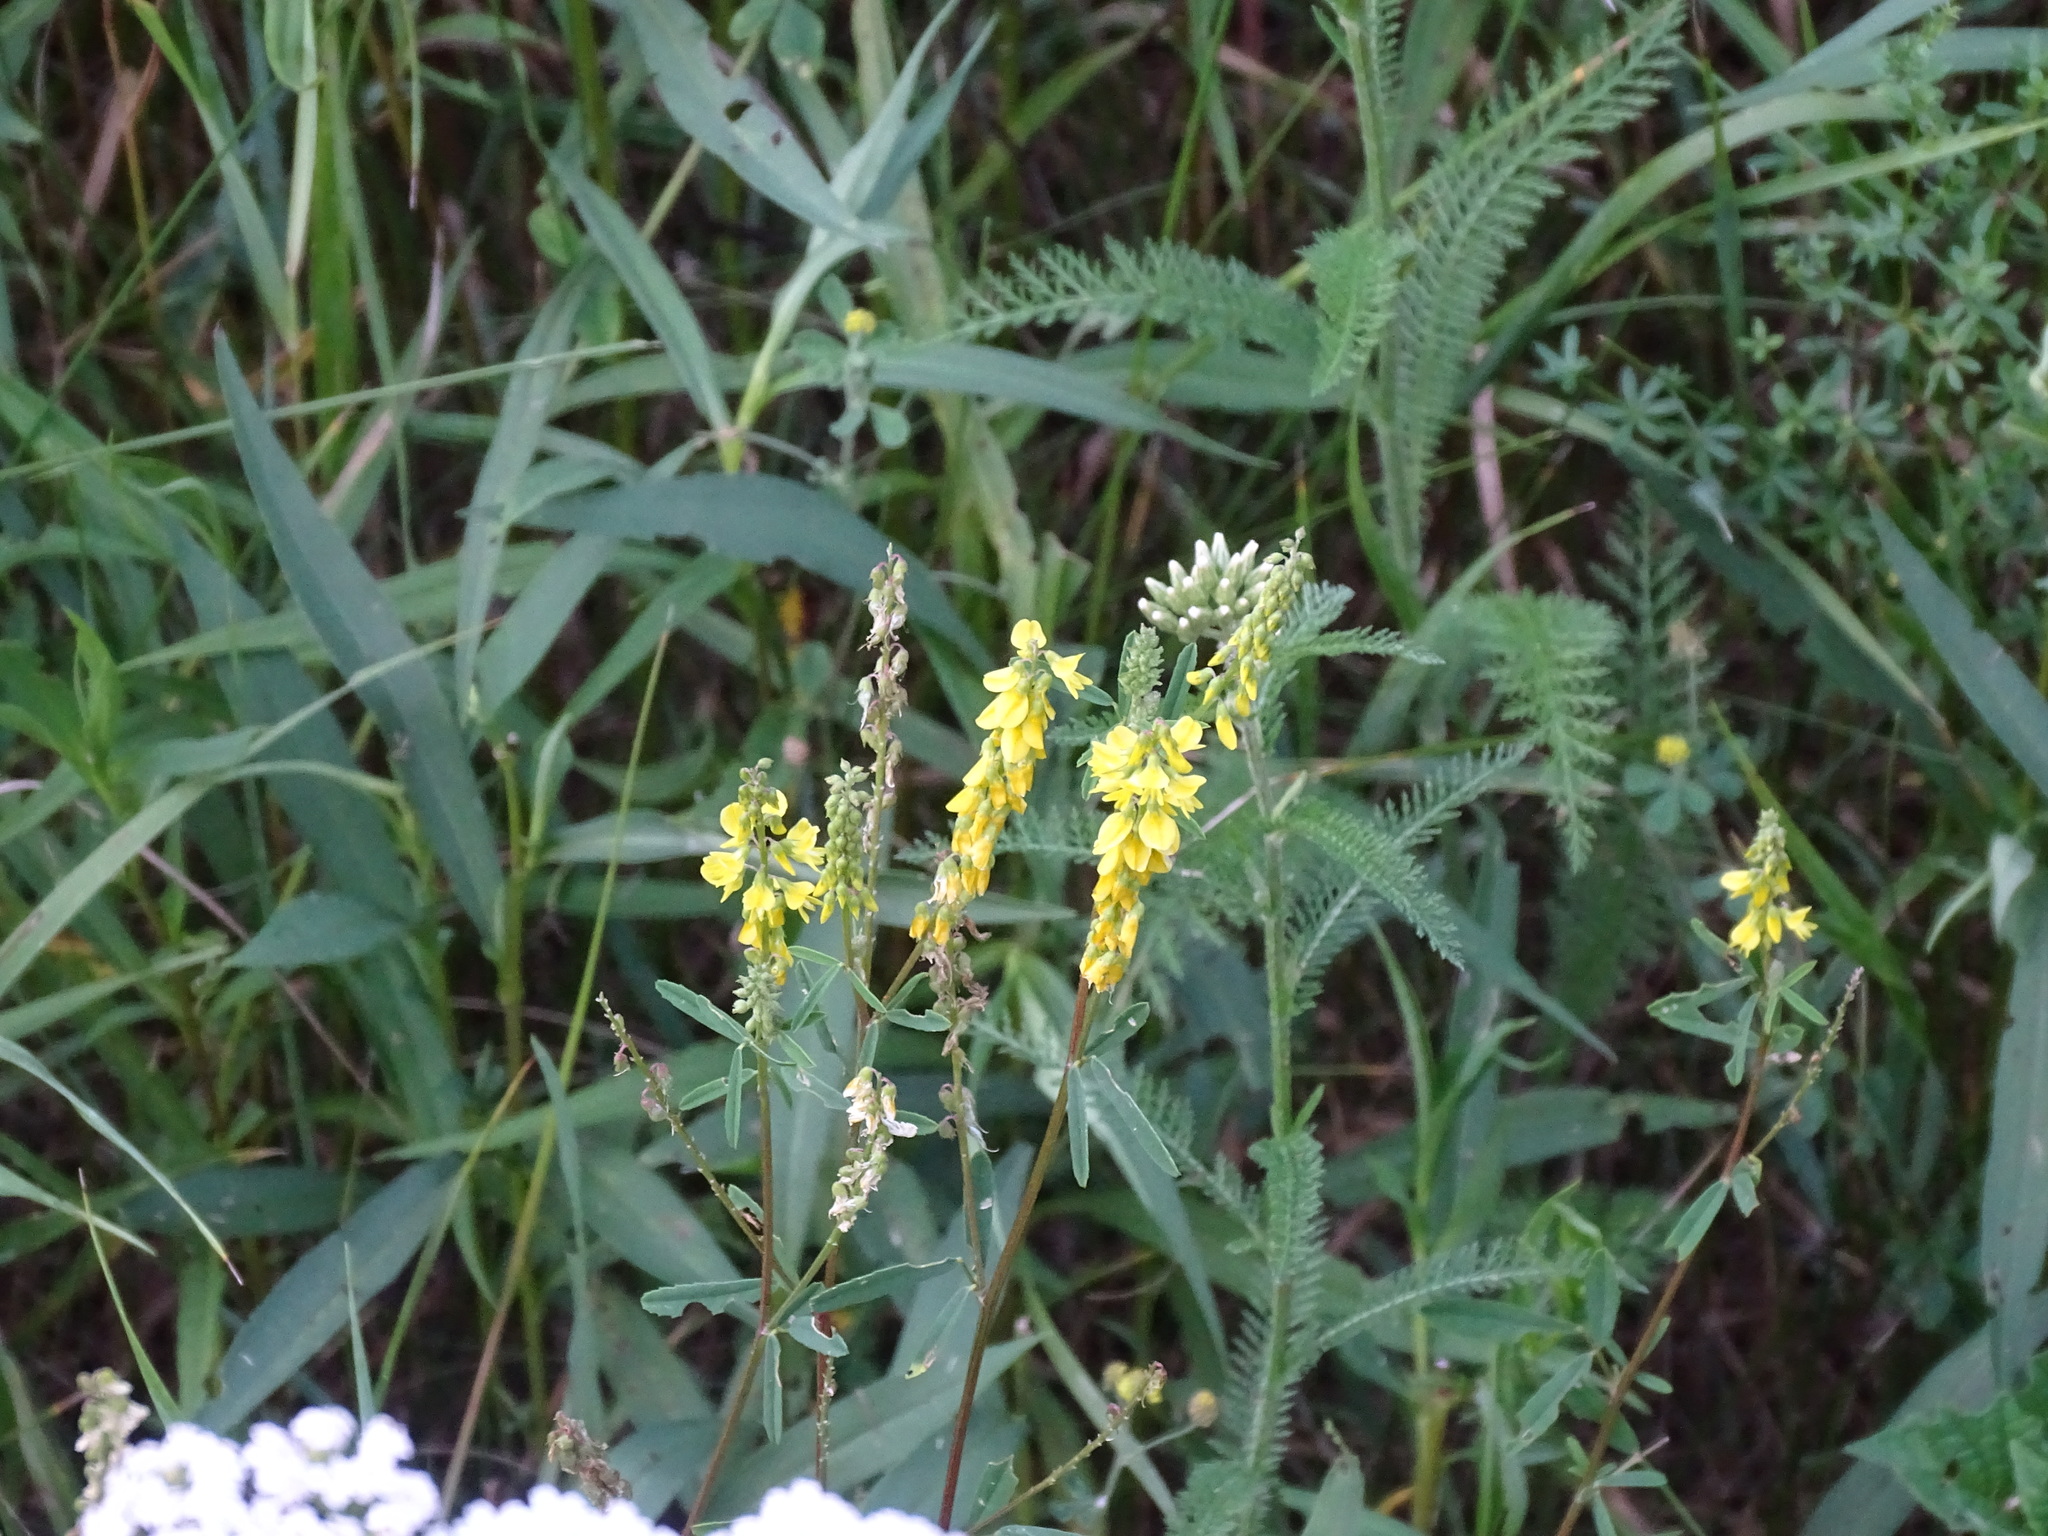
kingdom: Plantae
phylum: Tracheophyta
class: Magnoliopsida
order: Fabales
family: Fabaceae
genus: Melilotus
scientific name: Melilotus officinalis
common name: Sweetclover
